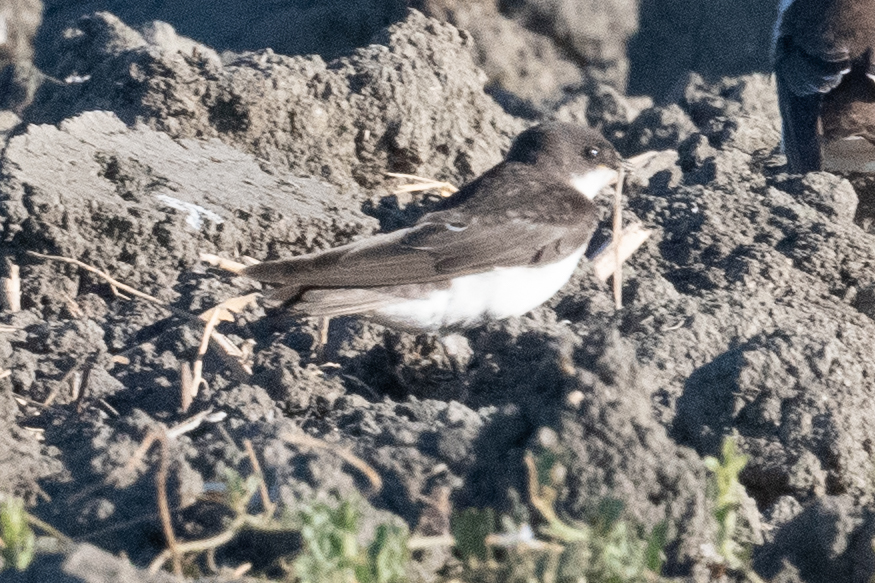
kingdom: Animalia
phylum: Chordata
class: Aves
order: Passeriformes
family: Hirundinidae
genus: Tachycineta
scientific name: Tachycineta bicolor
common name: Tree swallow
